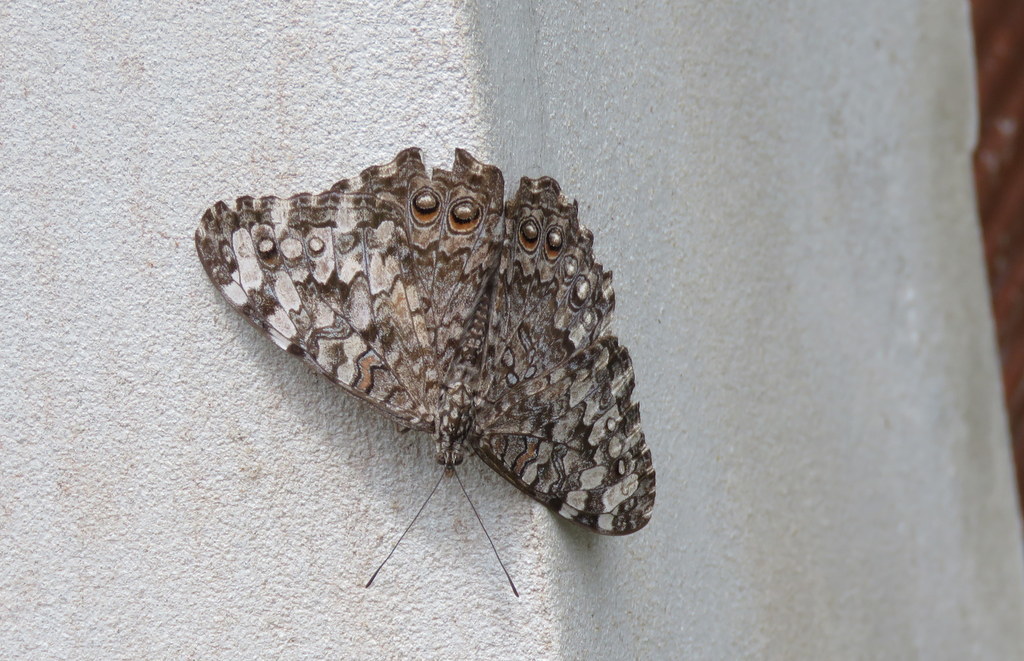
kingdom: Animalia
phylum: Arthropoda
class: Insecta
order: Lepidoptera
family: Nymphalidae
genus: Hamadryas
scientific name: Hamadryas februa
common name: Gray cracker
